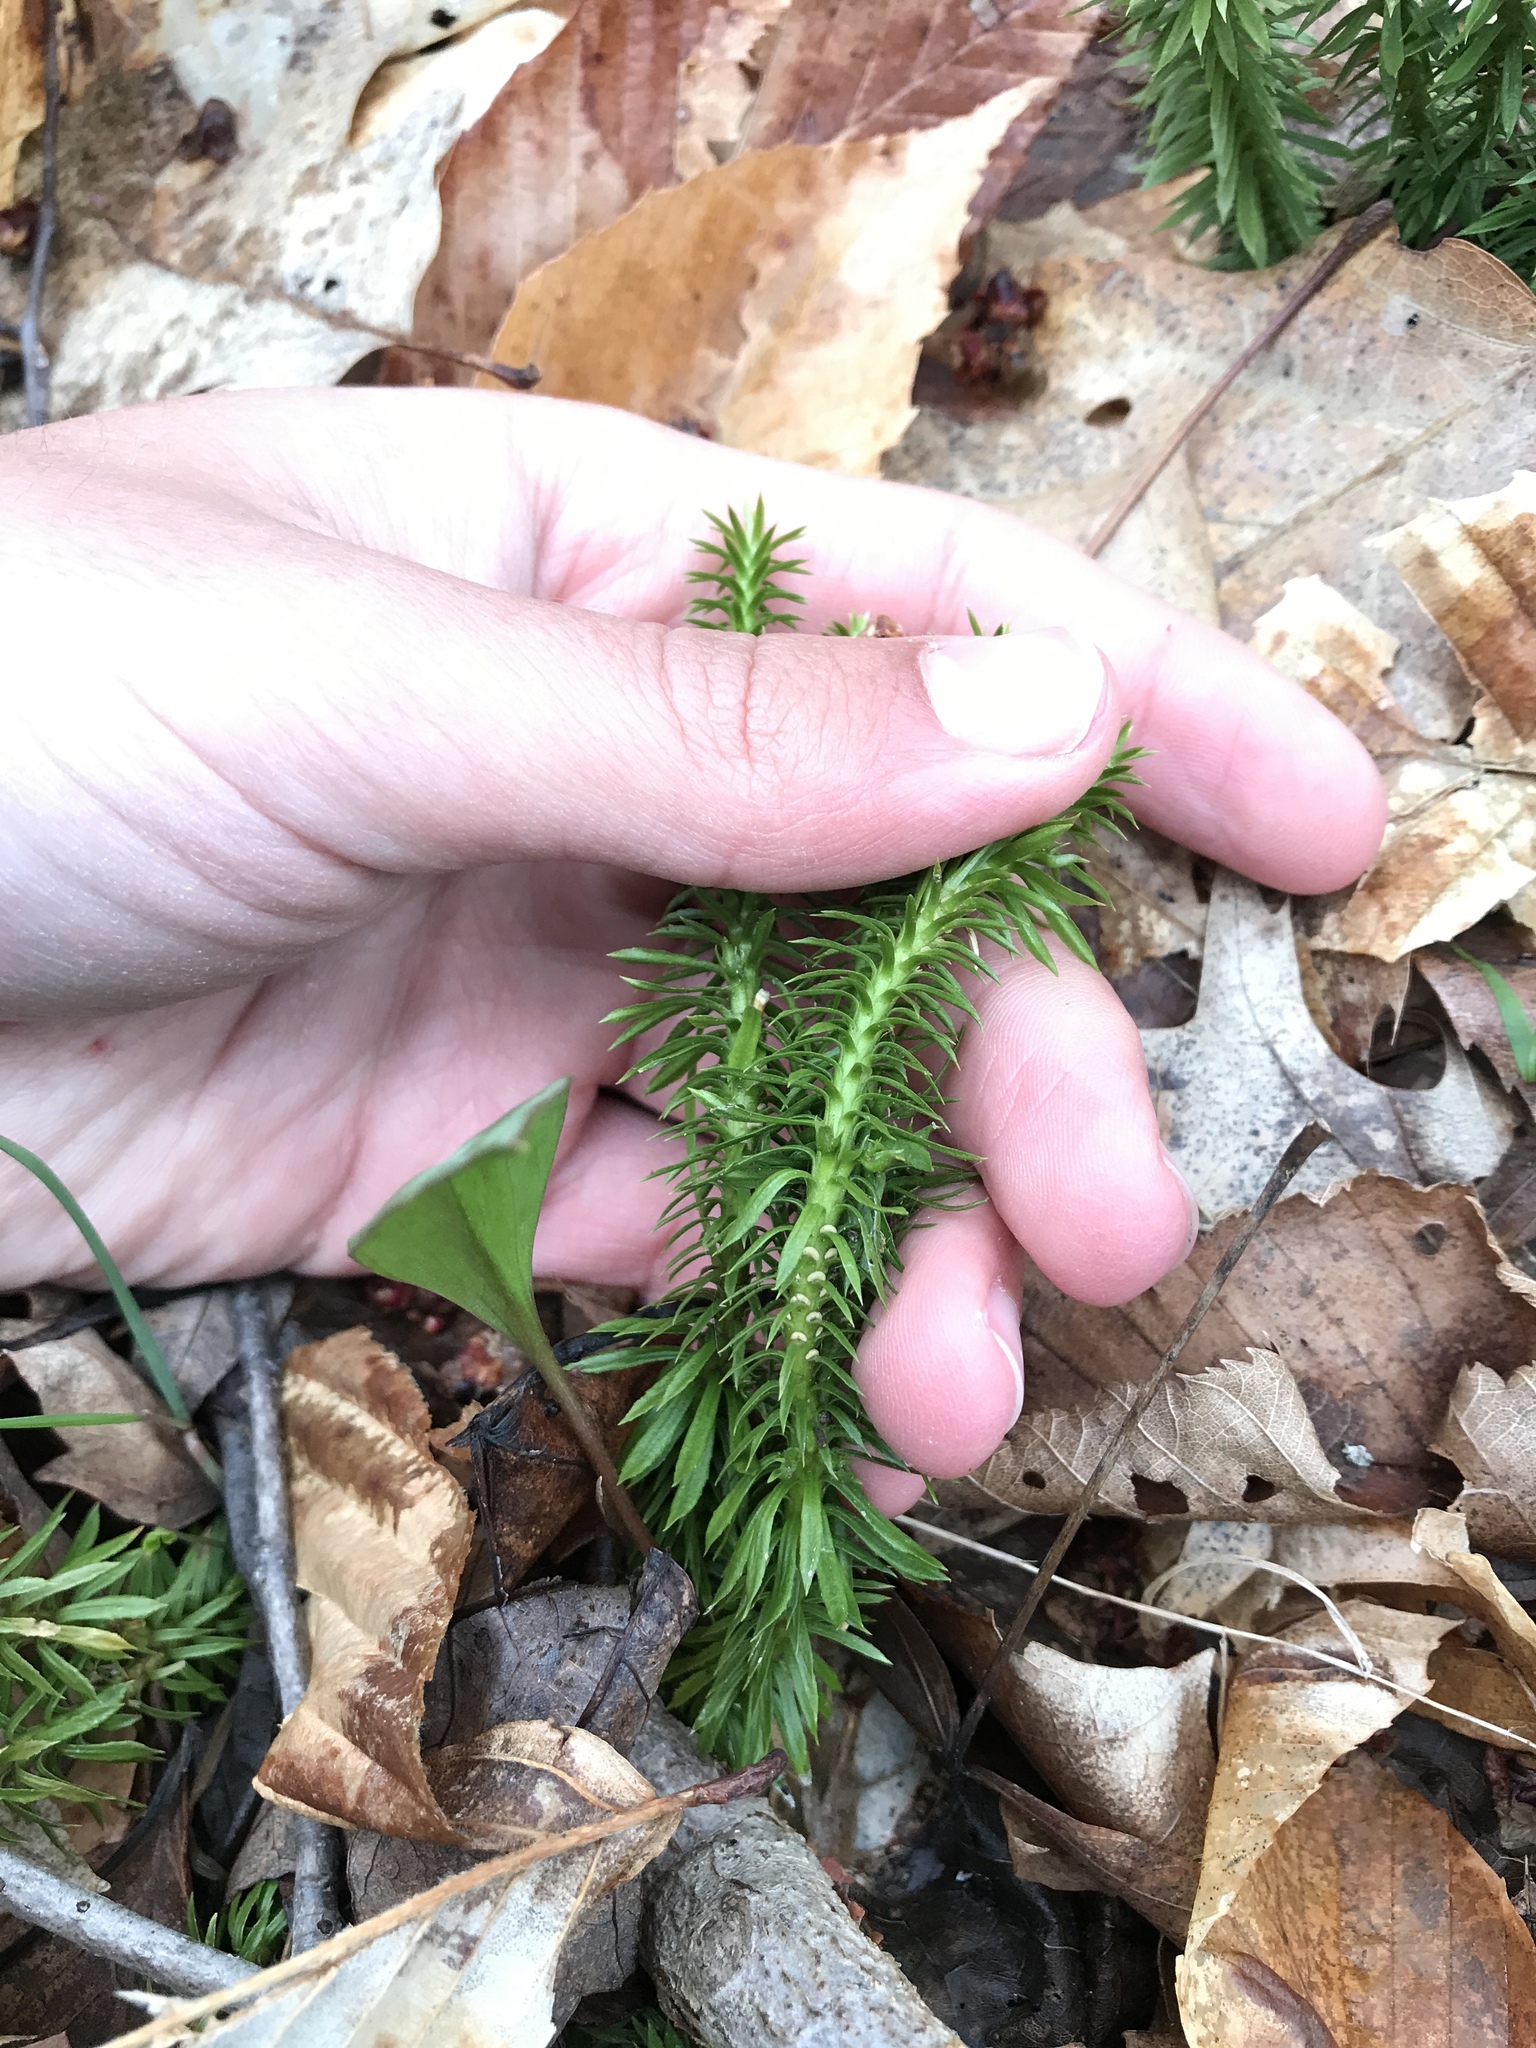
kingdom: Plantae
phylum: Tracheophyta
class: Lycopodiopsida
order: Lycopodiales
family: Lycopodiaceae
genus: Huperzia
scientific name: Huperzia lucidula
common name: Shining clubmoss
